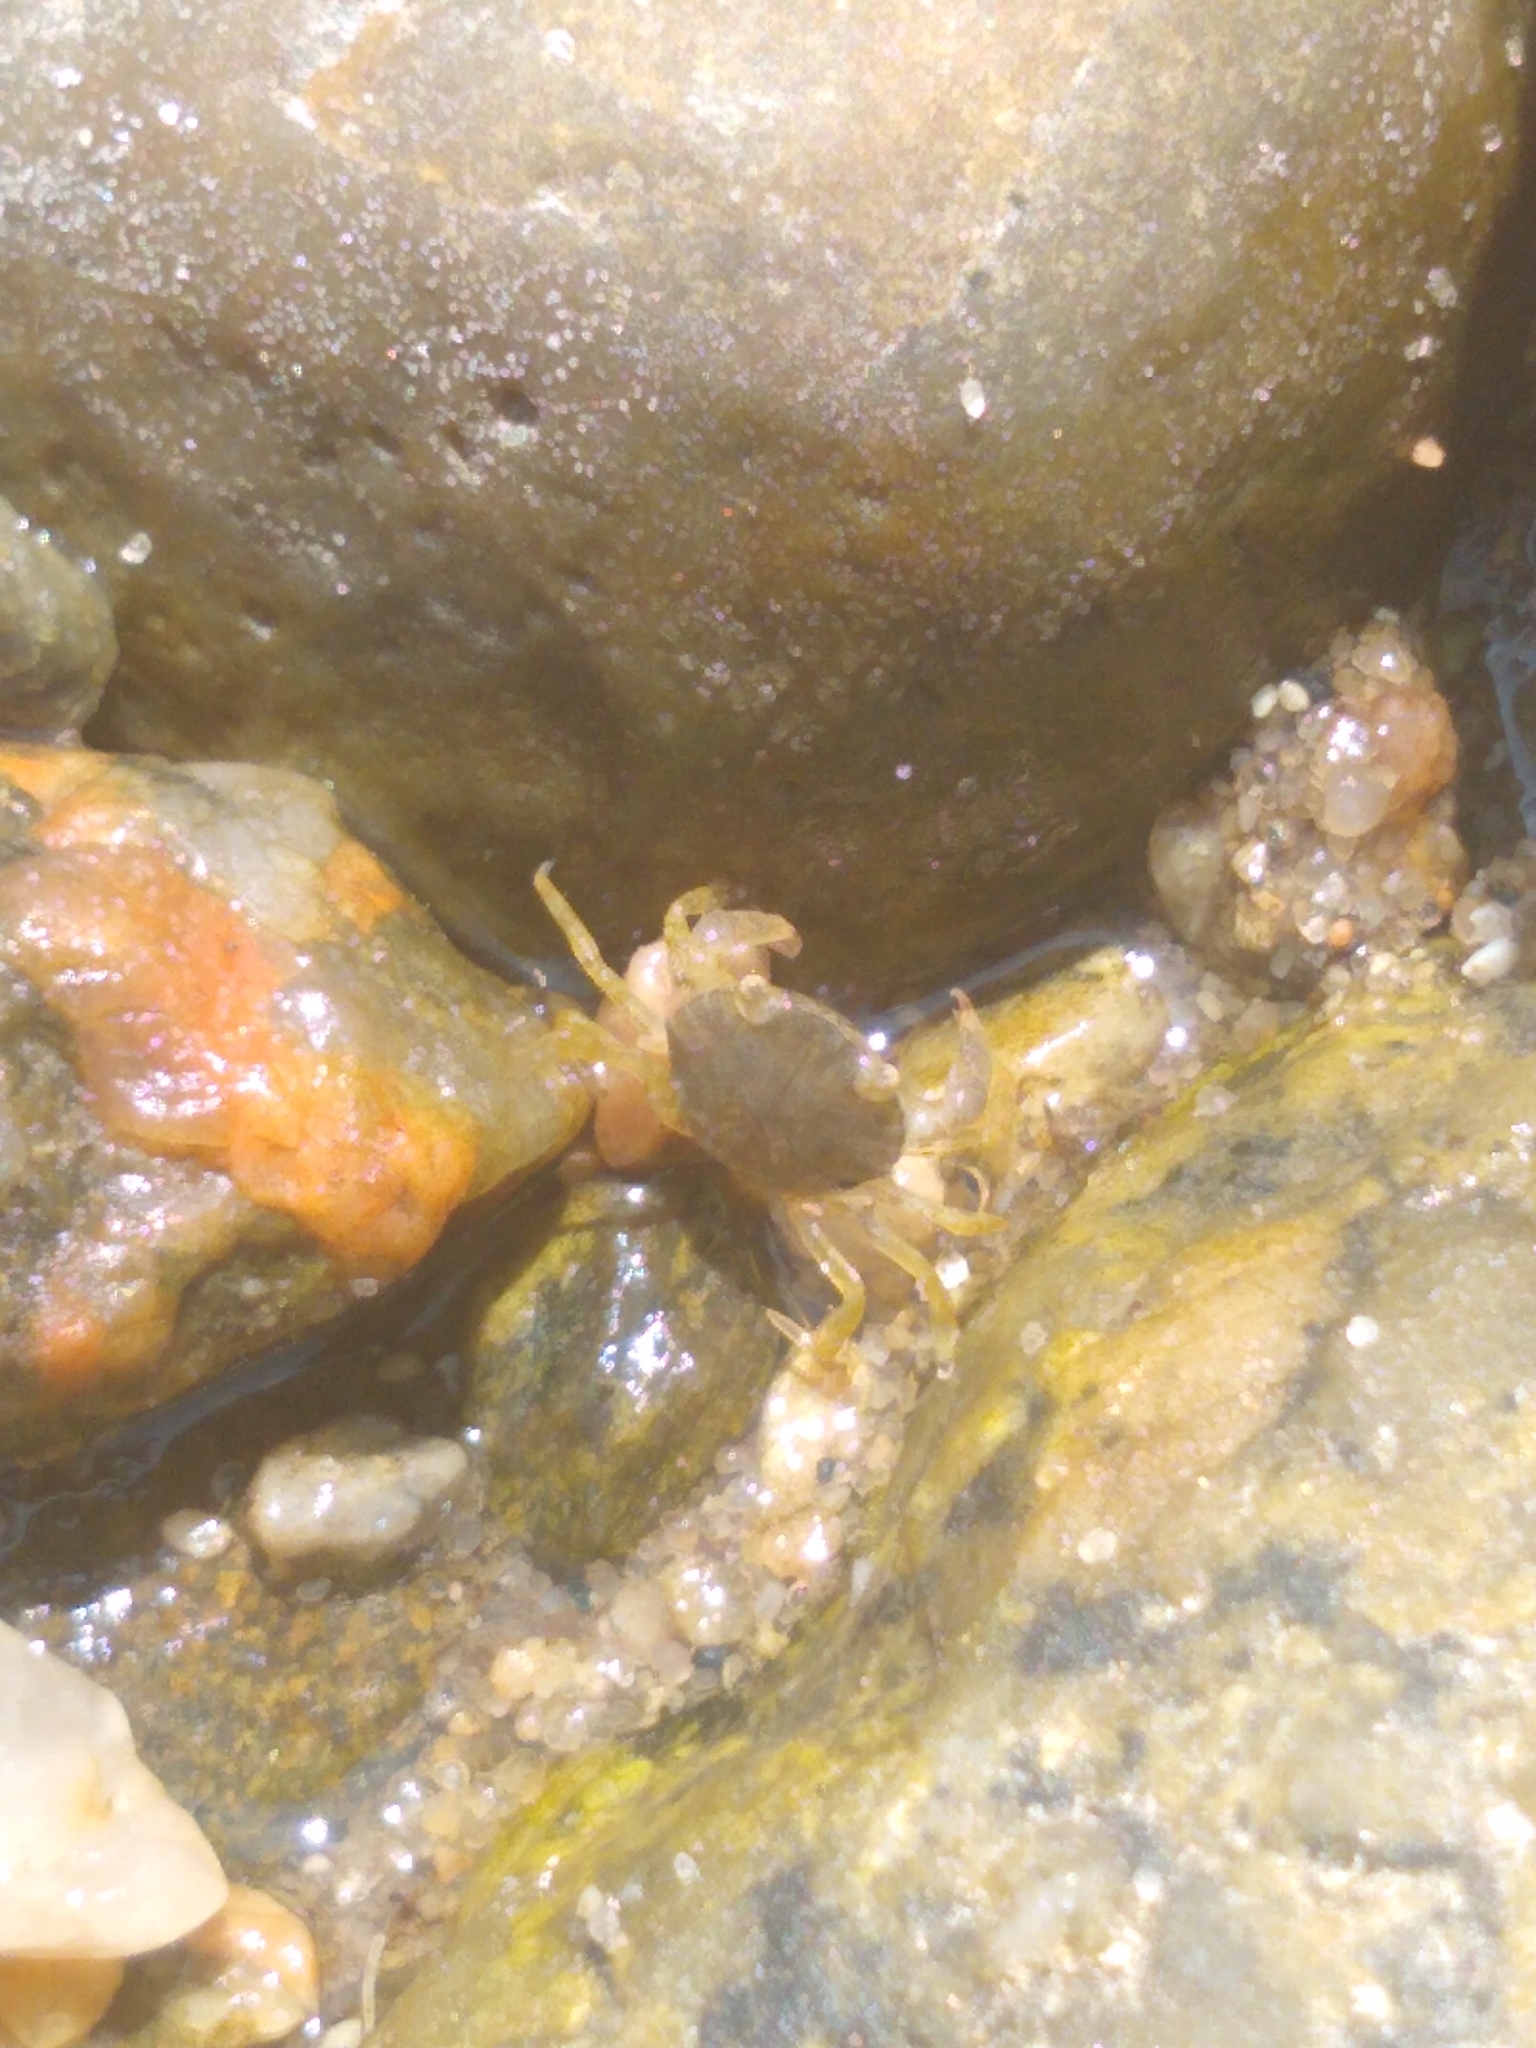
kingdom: Animalia
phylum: Arthropoda
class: Malacostraca
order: Decapoda
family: Carcinidae
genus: Carcinus
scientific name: Carcinus maenas
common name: European green crab
